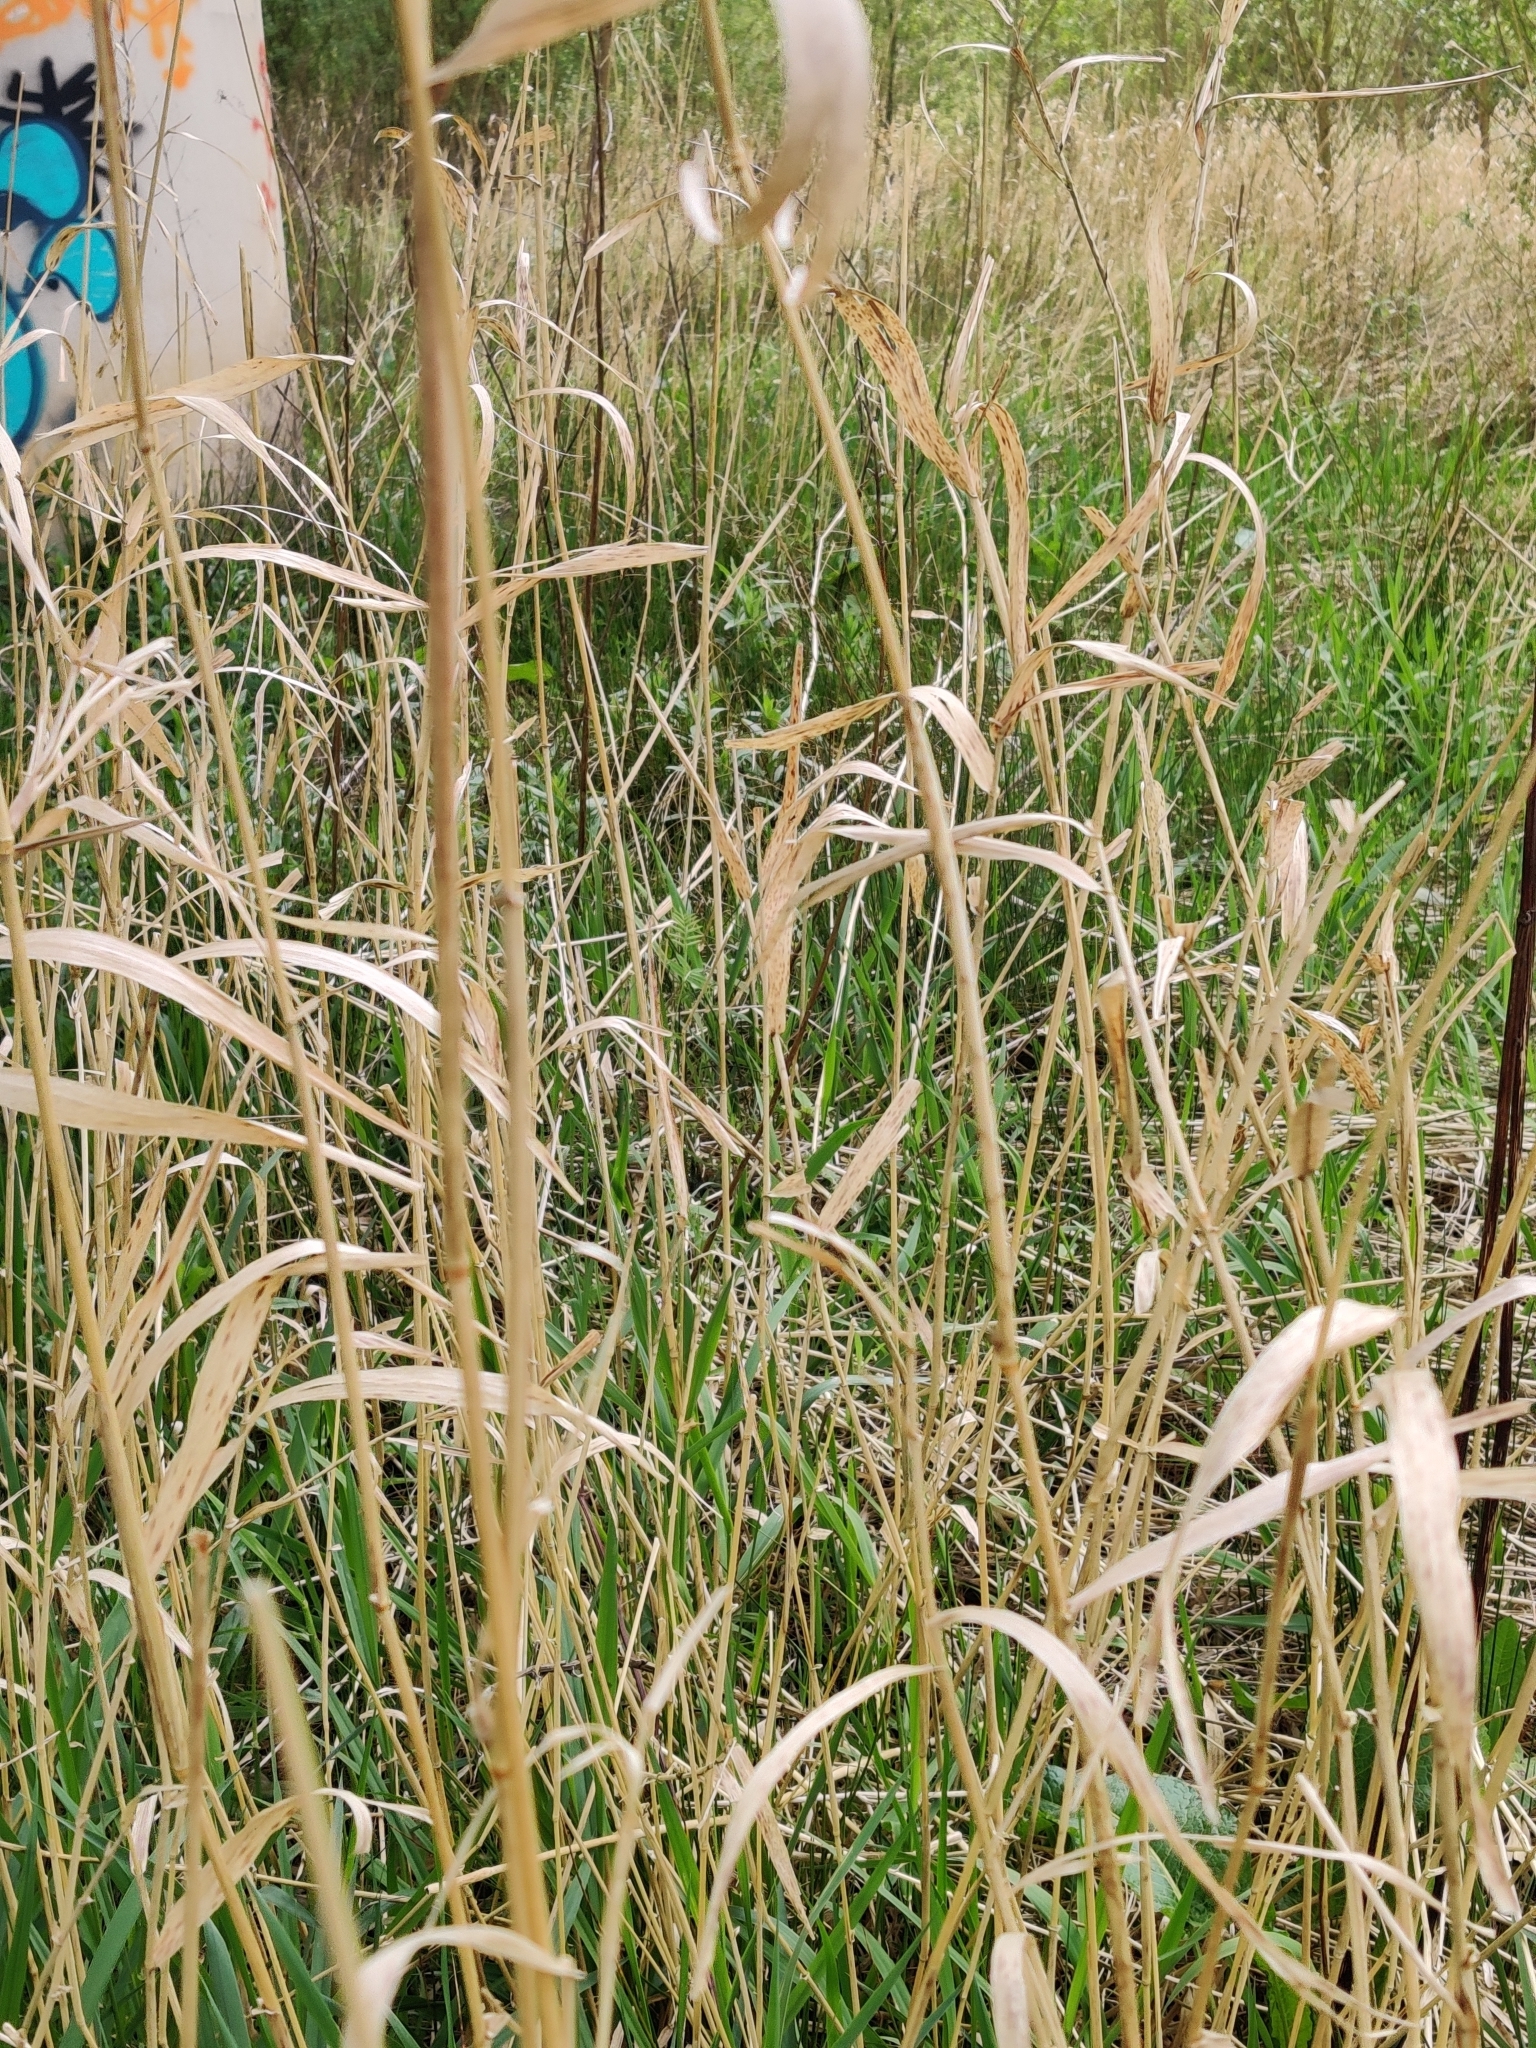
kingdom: Plantae
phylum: Tracheophyta
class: Liliopsida
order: Poales
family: Poaceae
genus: Phragmites
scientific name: Phragmites australis
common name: Common reed
